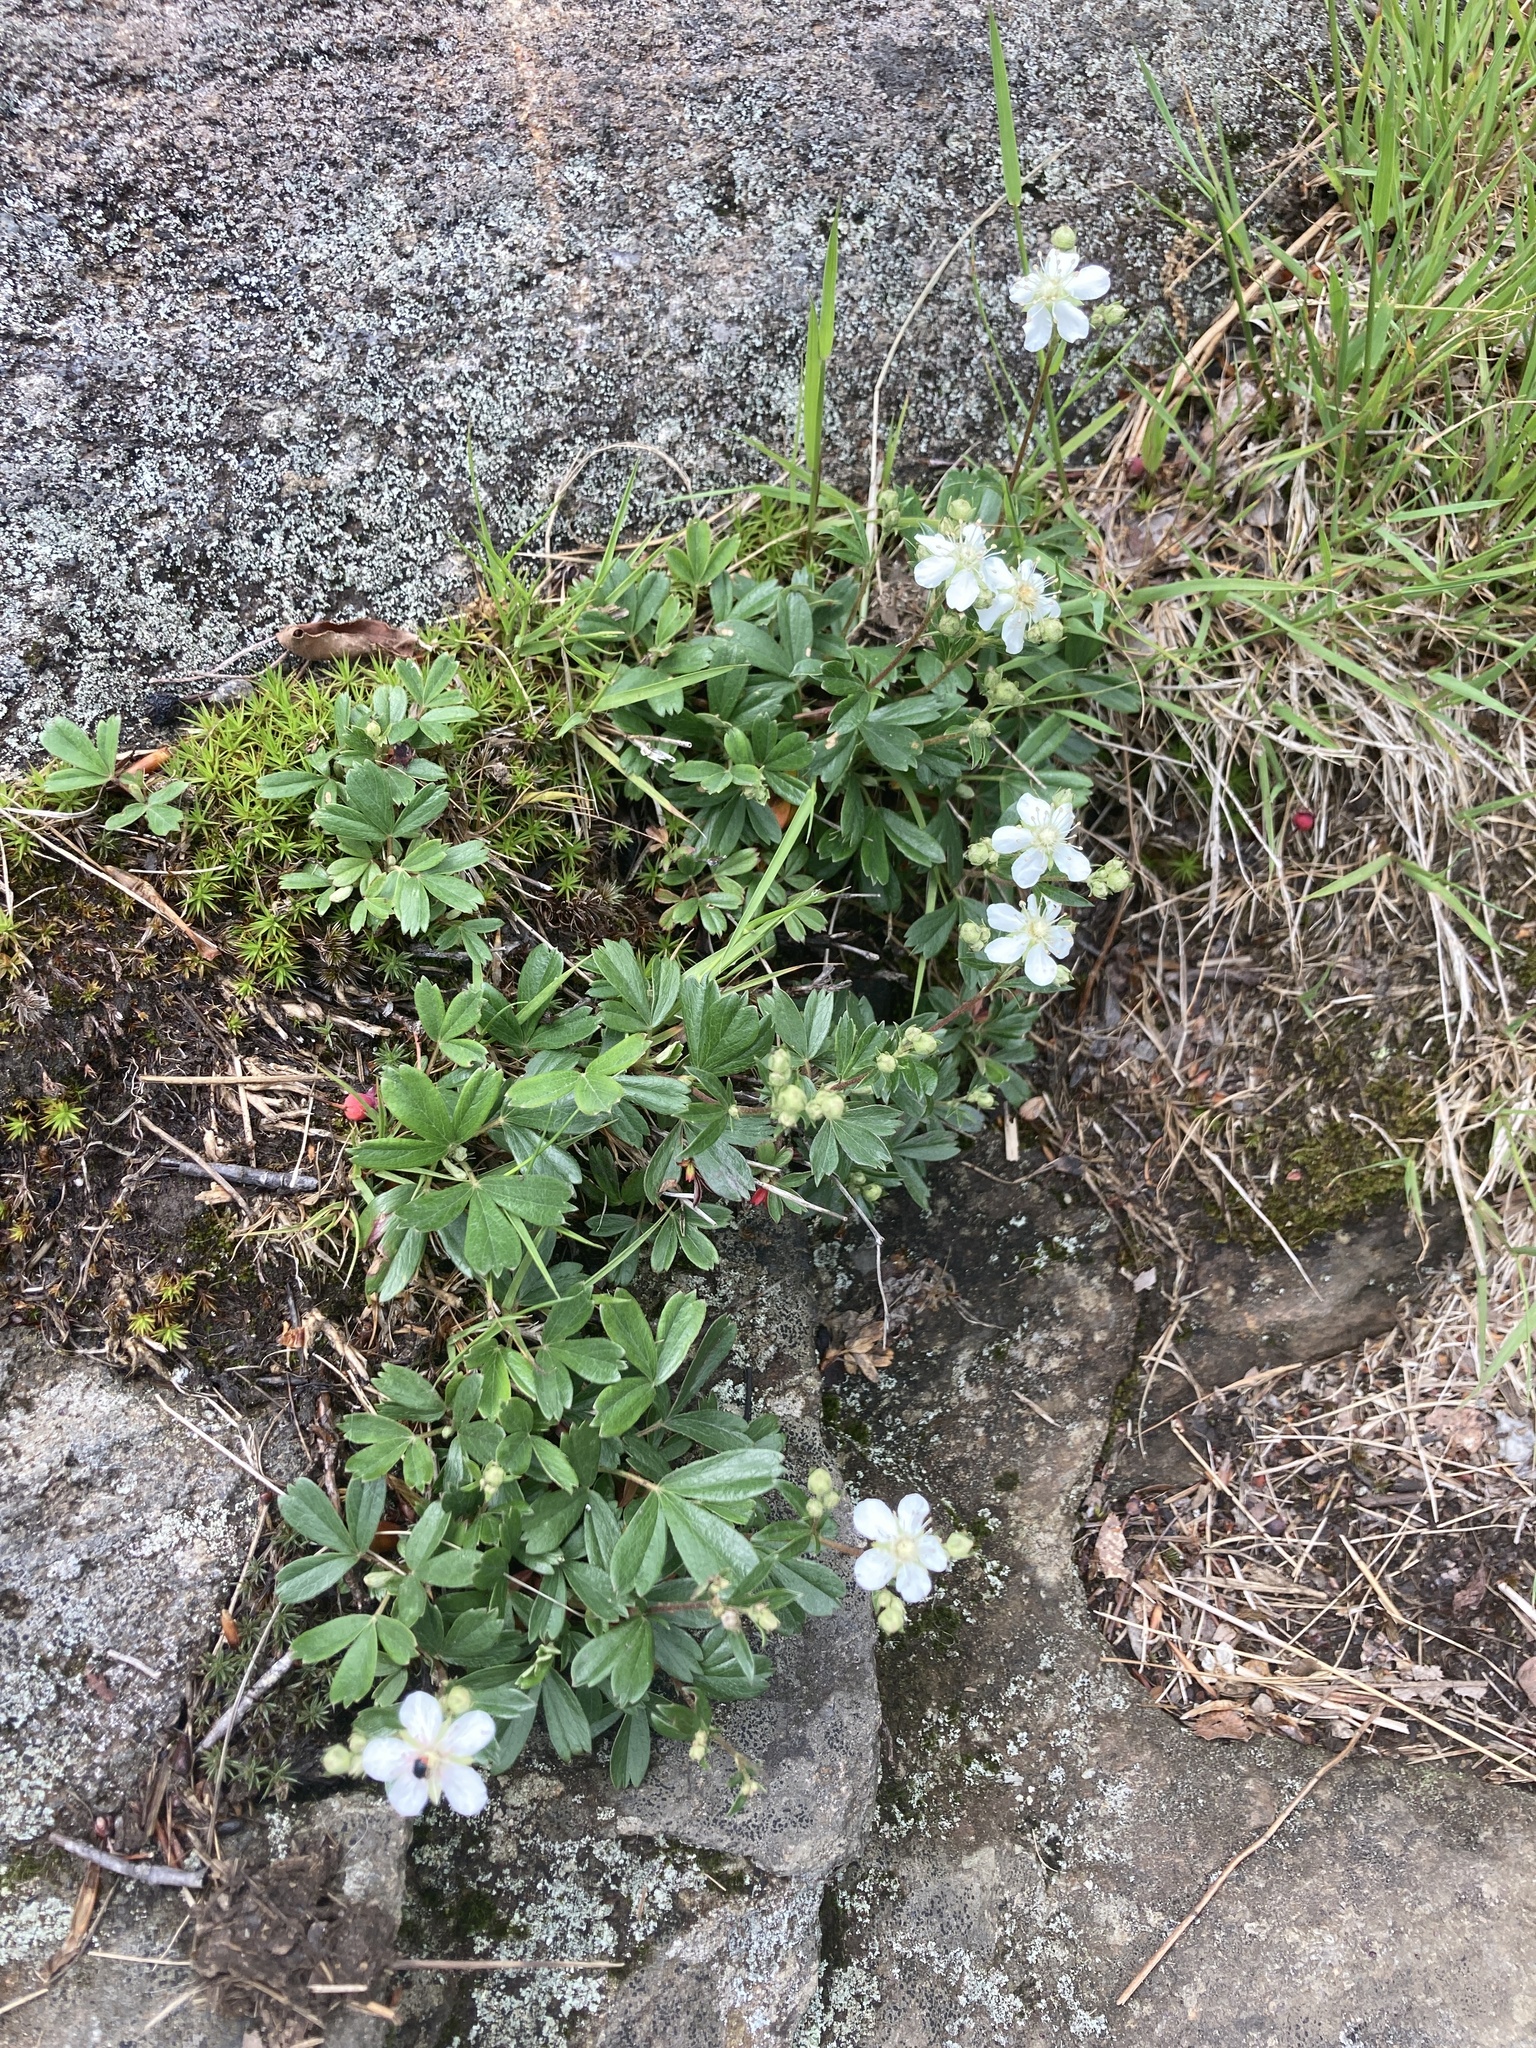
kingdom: Plantae
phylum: Tracheophyta
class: Magnoliopsida
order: Rosales
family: Rosaceae
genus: Sibbaldia
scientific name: Sibbaldia tridentata
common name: Three-toothed cinquefoil
